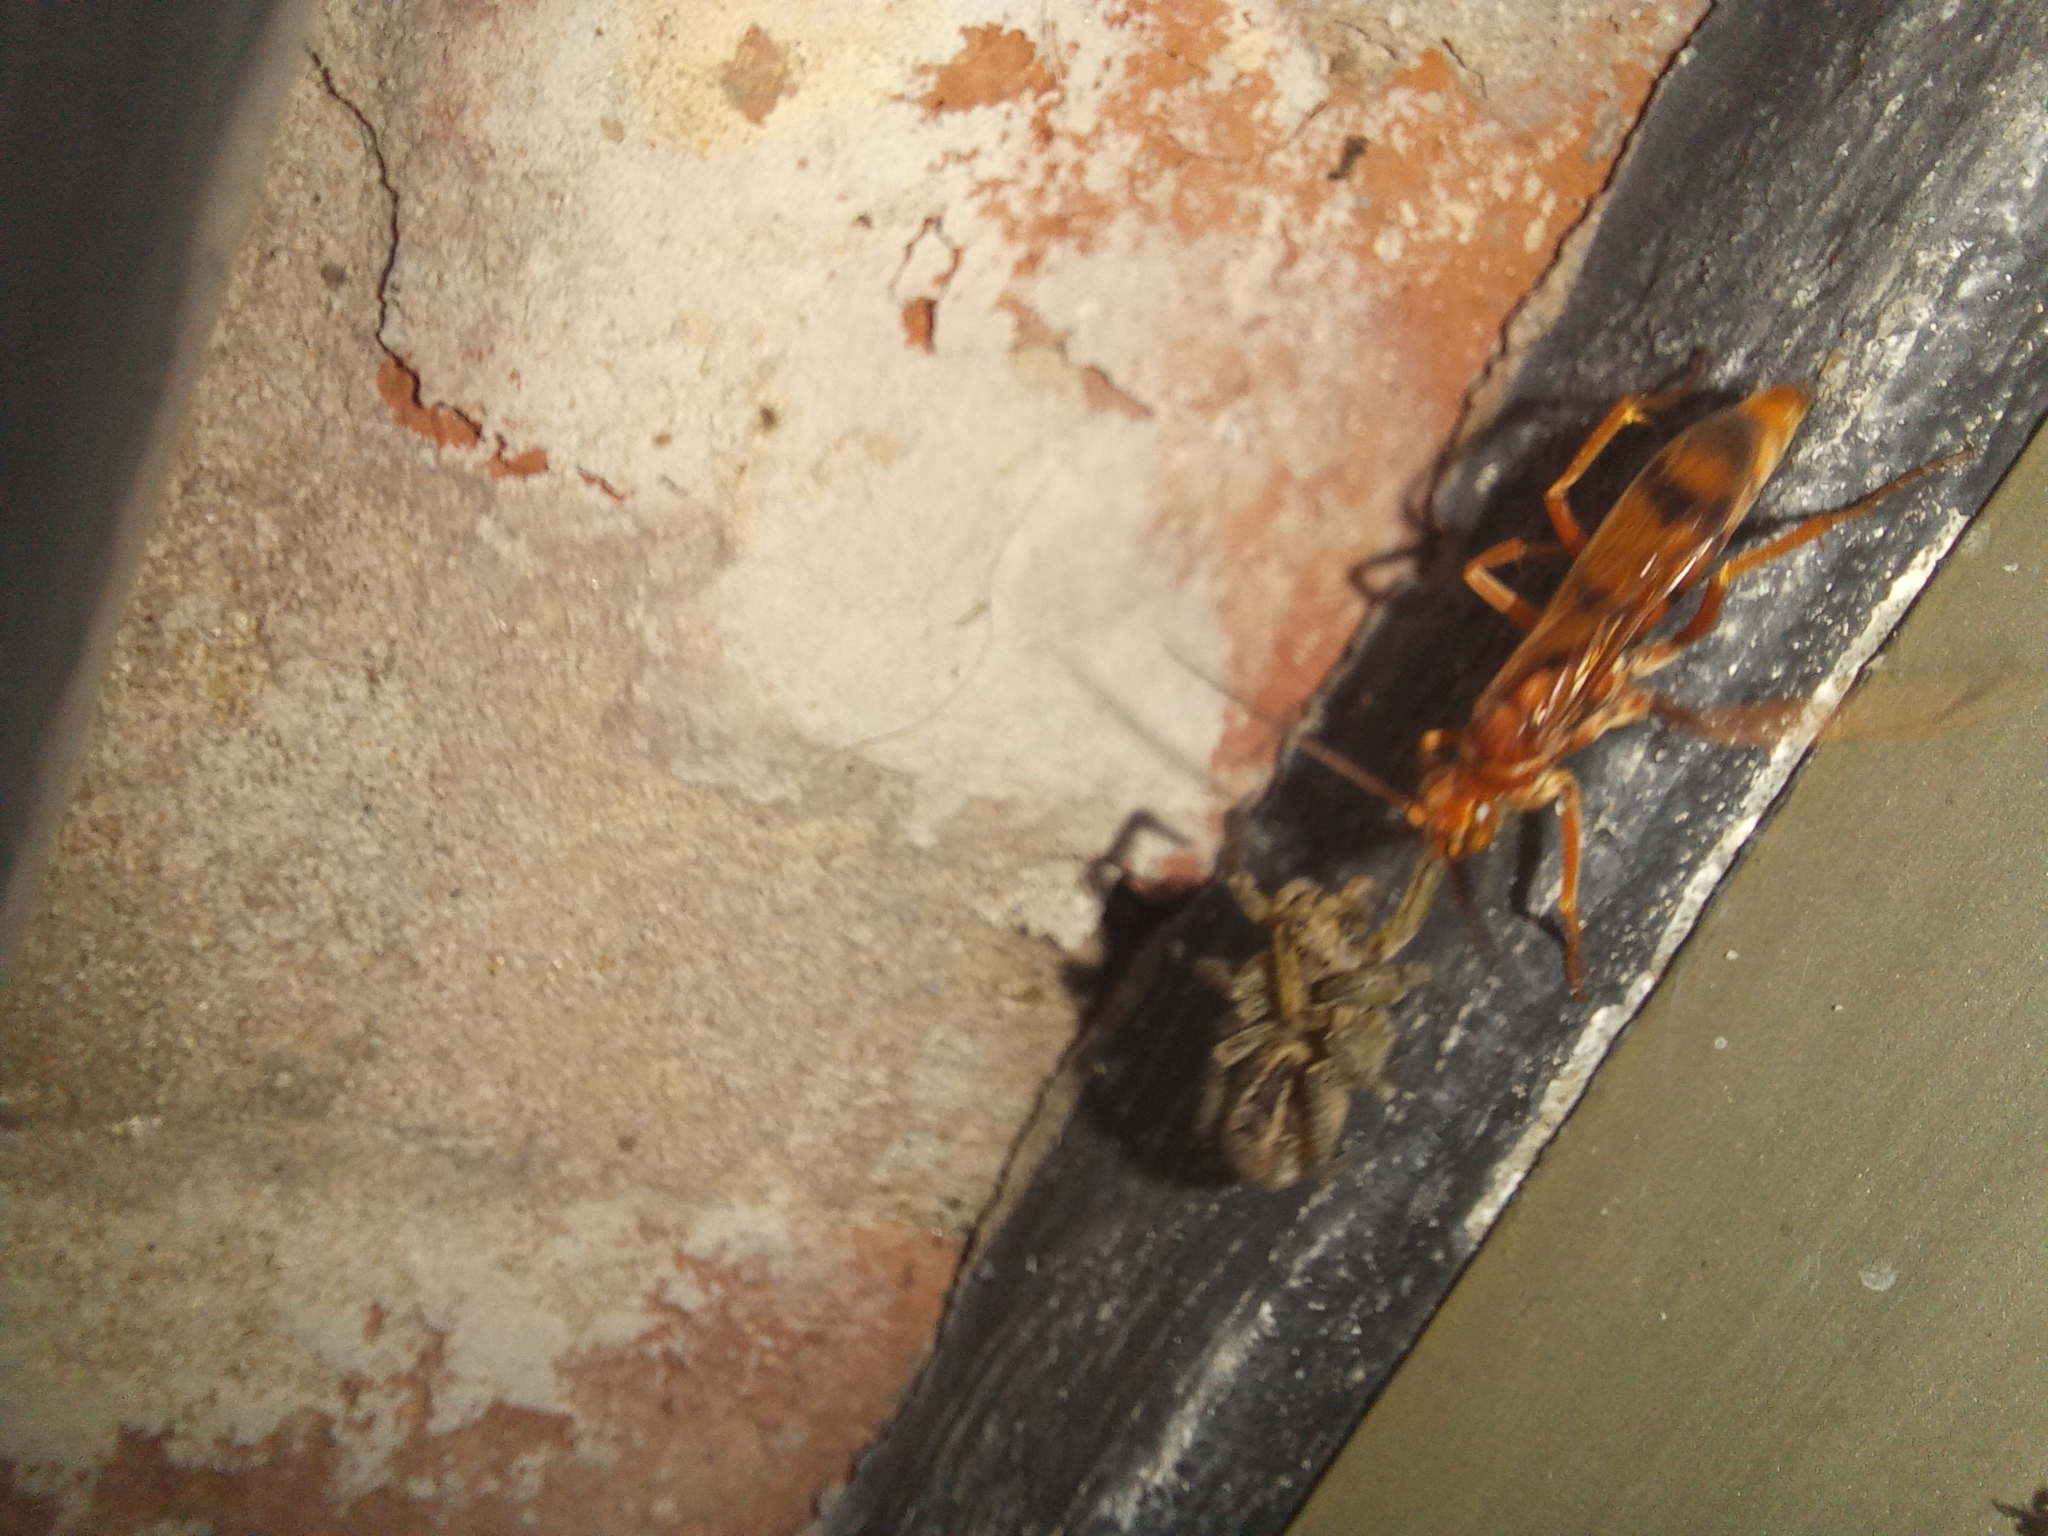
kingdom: Animalia
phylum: Arthropoda
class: Insecta
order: Hymenoptera
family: Pompilidae
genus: Tachypompilus
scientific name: Tachypompilus mendozae
